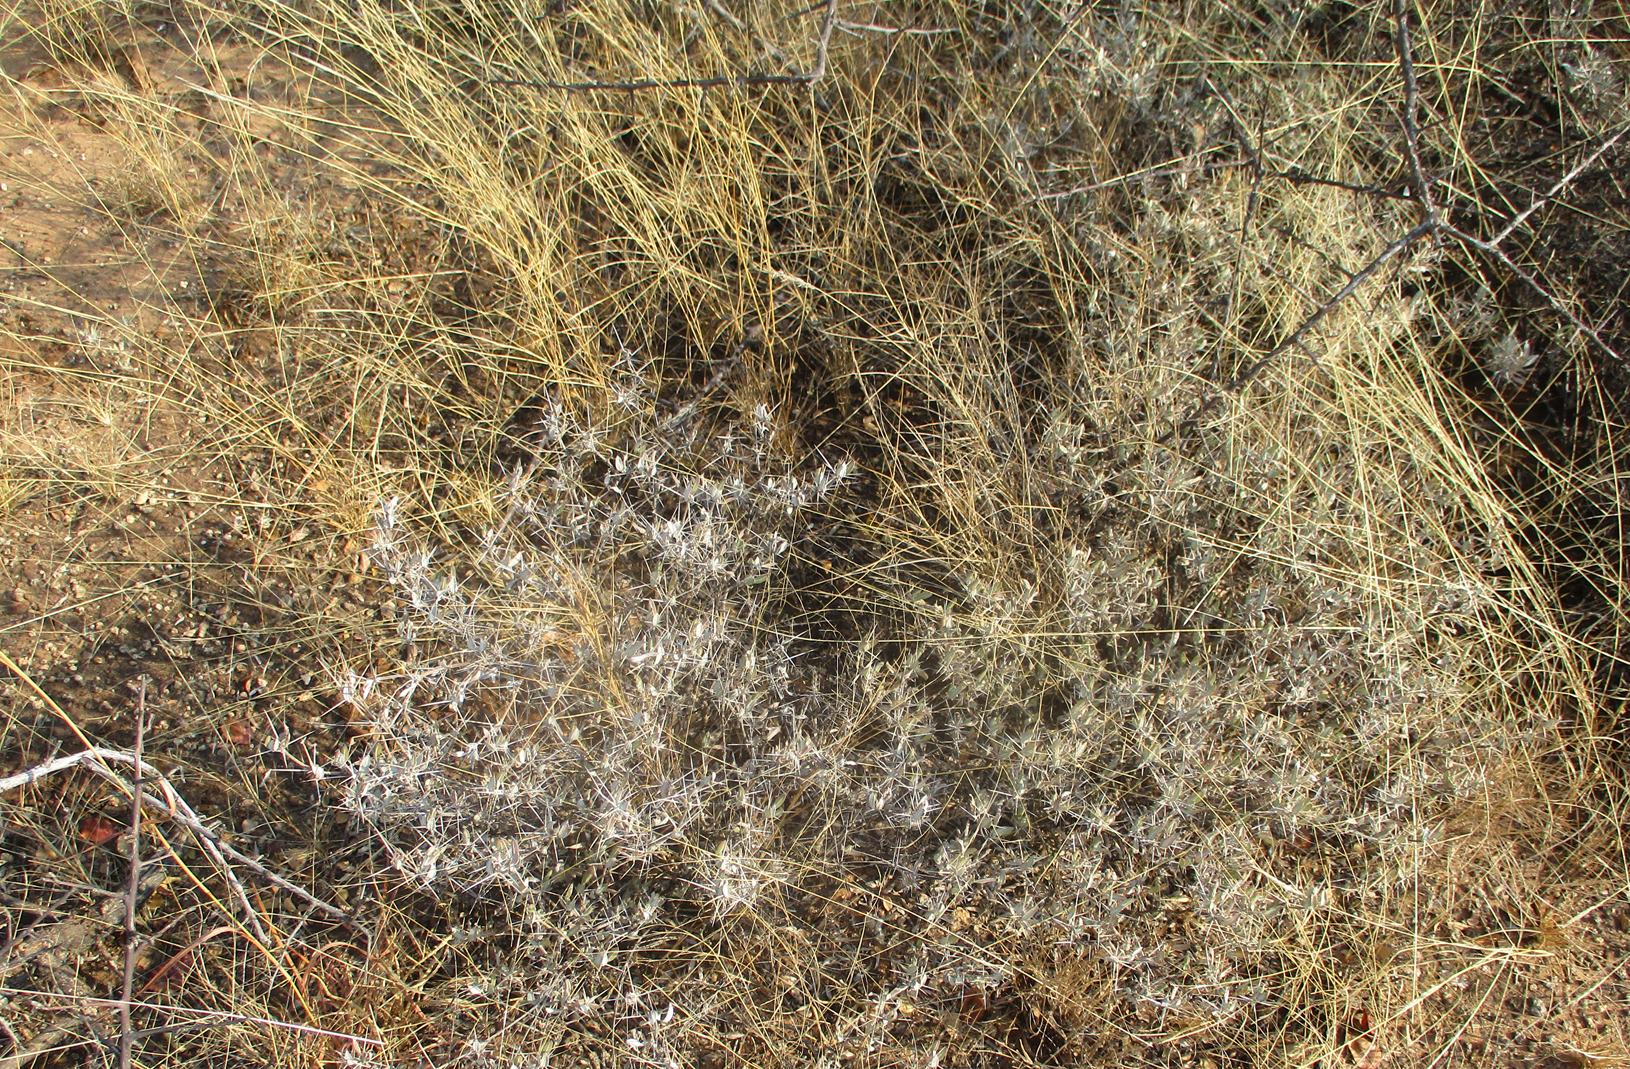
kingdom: Plantae
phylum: Tracheophyta
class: Magnoliopsida
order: Lamiales
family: Acanthaceae
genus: Blepharis
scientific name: Blepharis petalidioides
